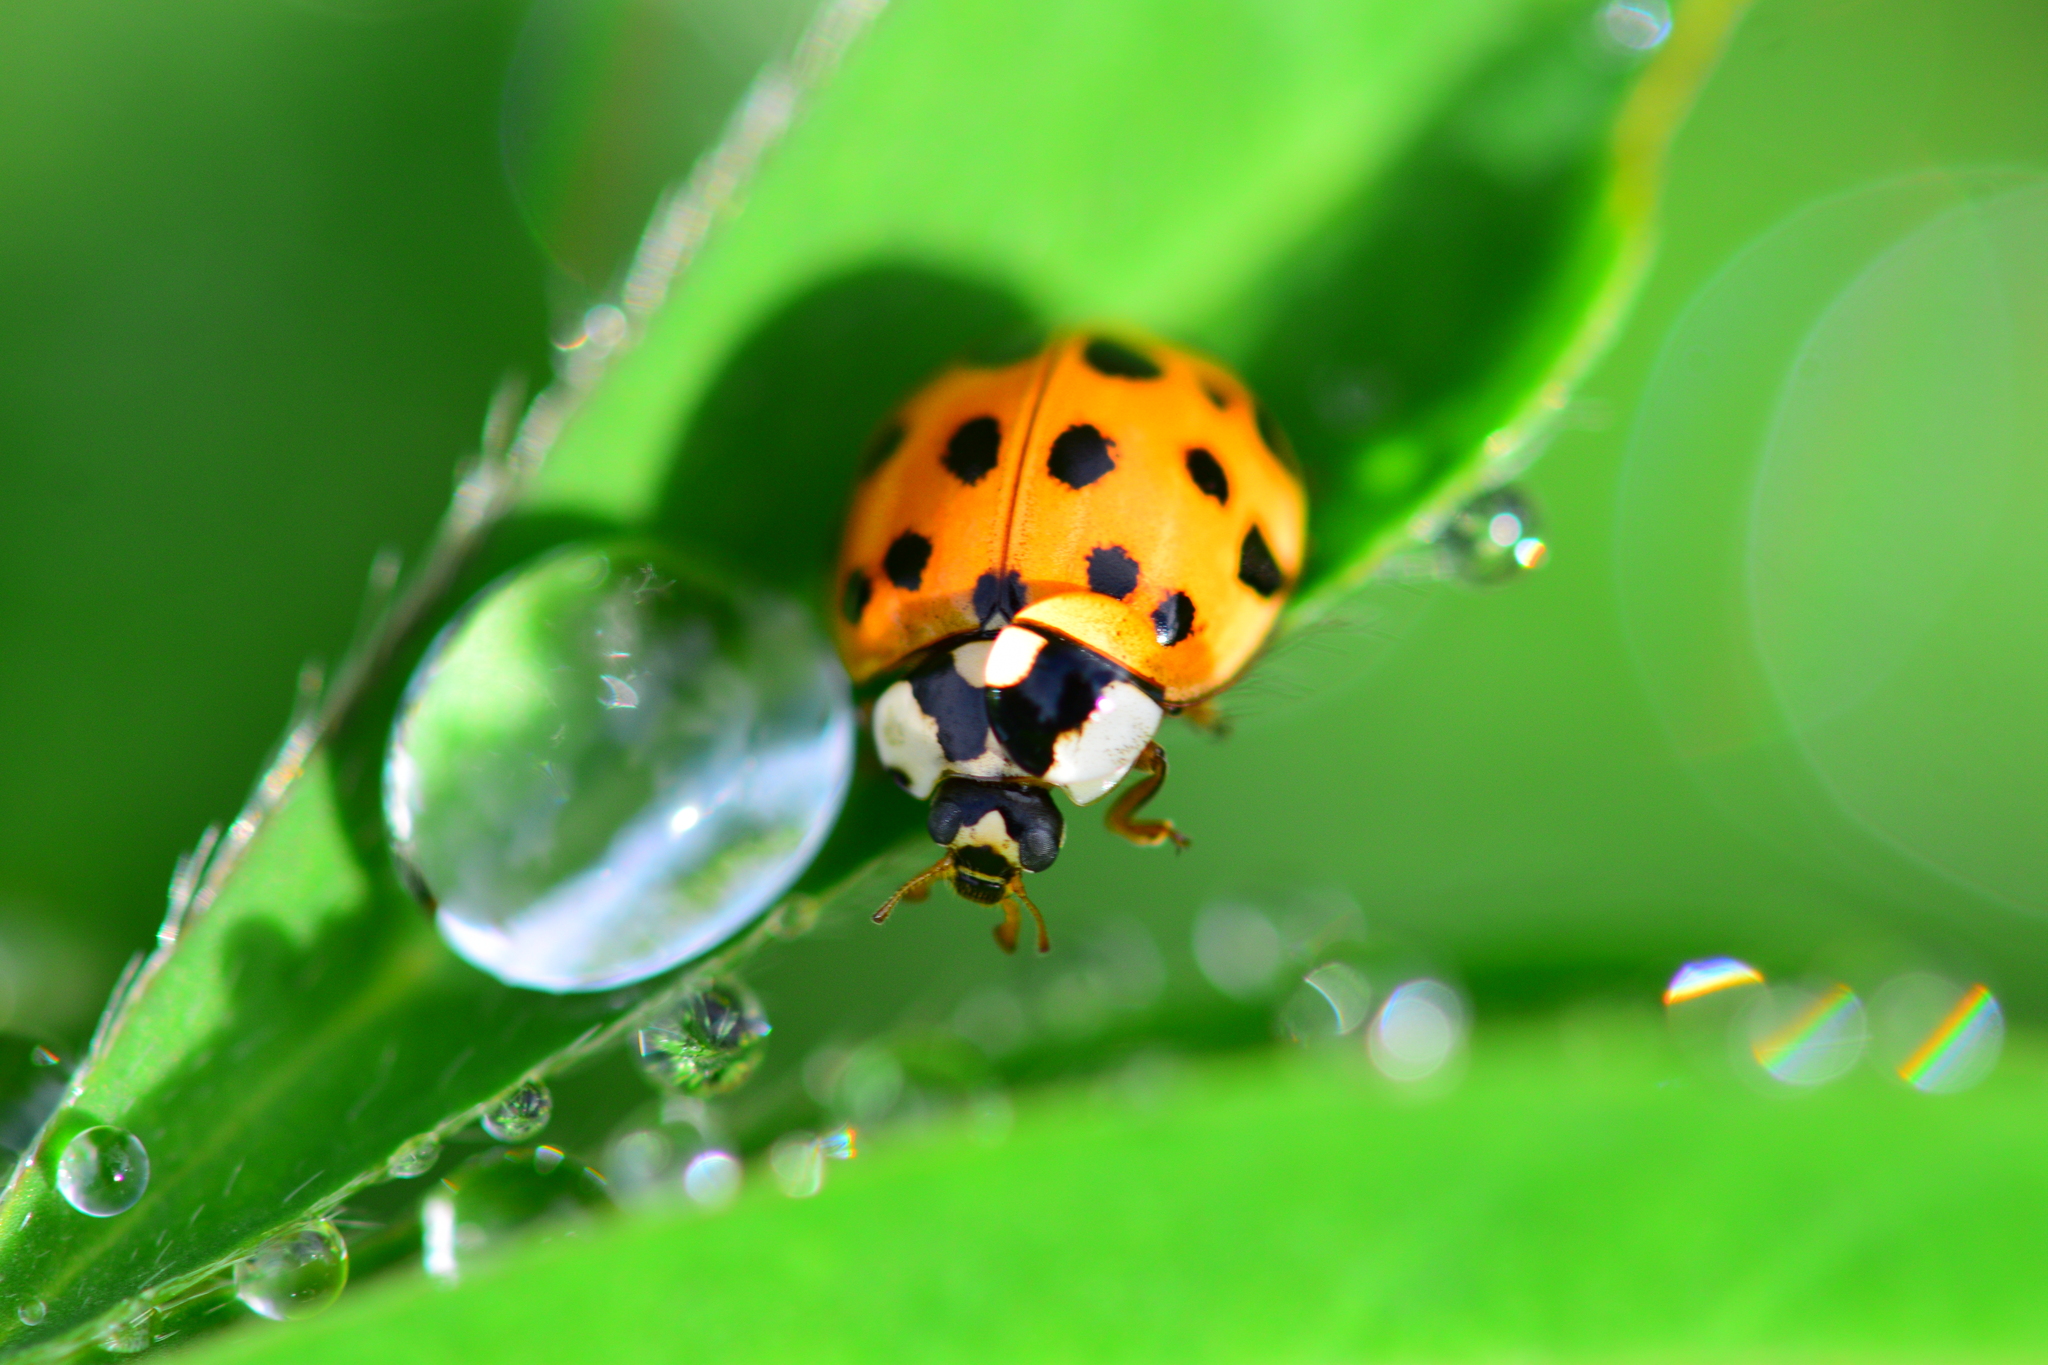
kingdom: Animalia
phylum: Arthropoda
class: Insecta
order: Coleoptera
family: Coccinellidae
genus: Harmonia
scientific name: Harmonia axyridis
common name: Harlequin ladybird
